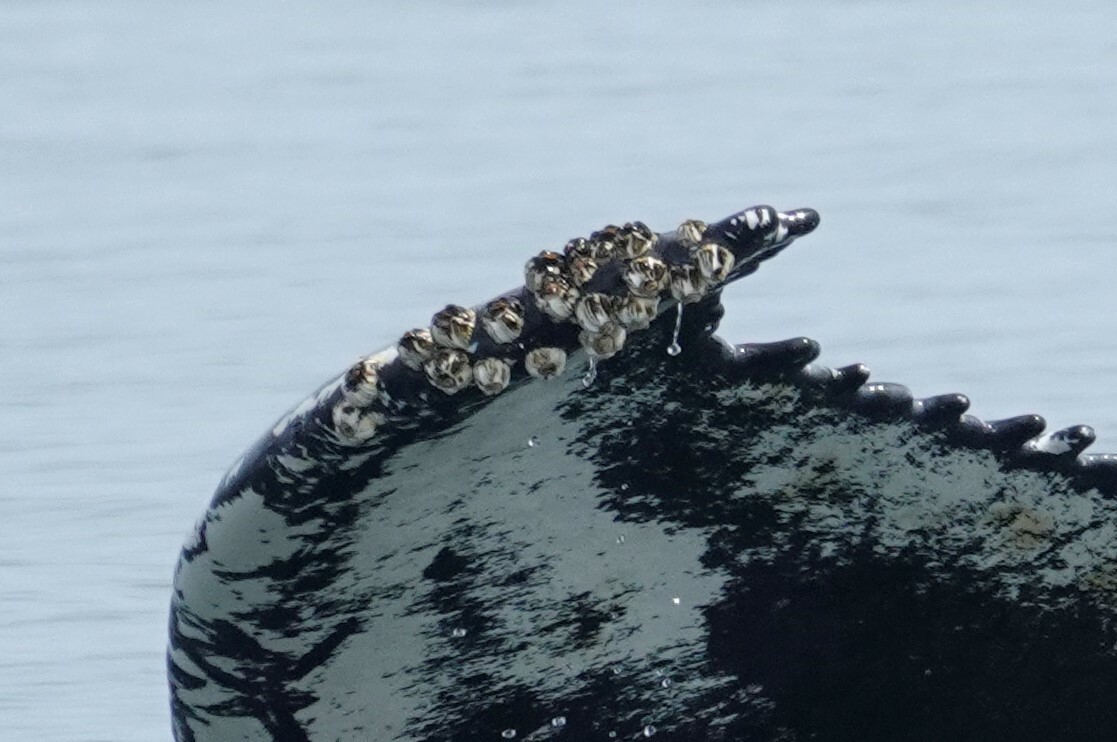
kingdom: Animalia
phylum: Arthropoda
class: Maxillopoda
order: Sessilia
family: Coronulidae
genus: Coronula
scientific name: Coronula diadema
